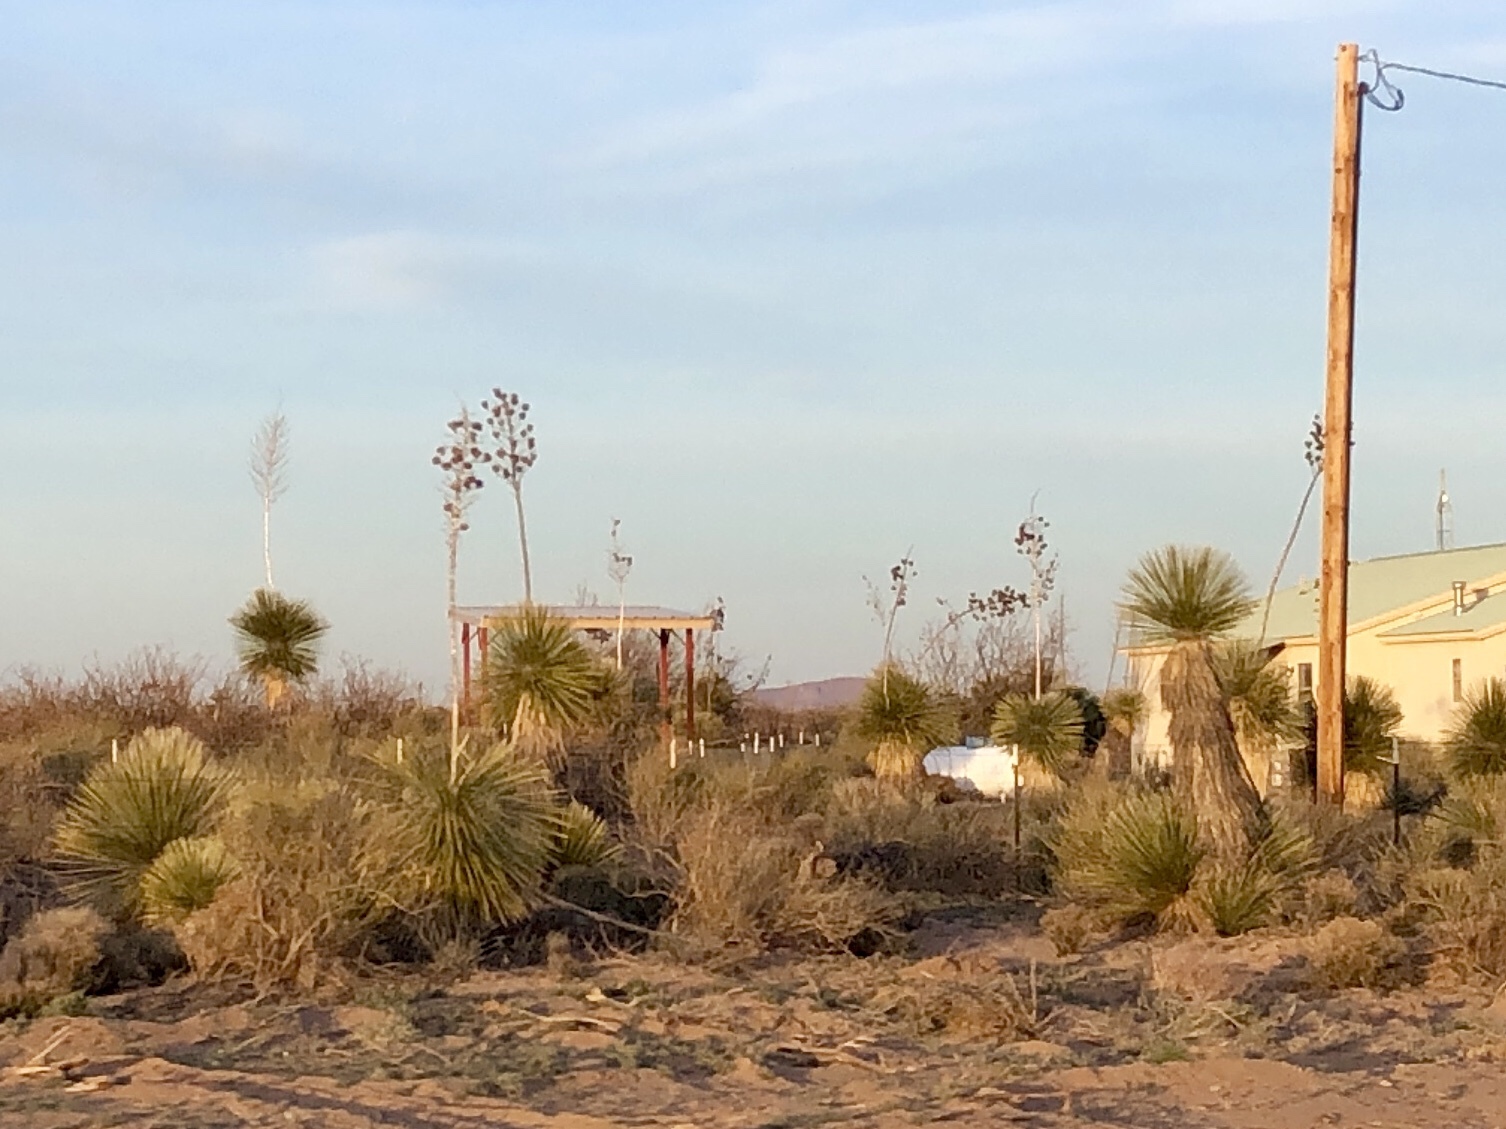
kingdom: Plantae
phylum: Tracheophyta
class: Liliopsida
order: Asparagales
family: Asparagaceae
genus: Yucca
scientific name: Yucca elata
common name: Palmella
